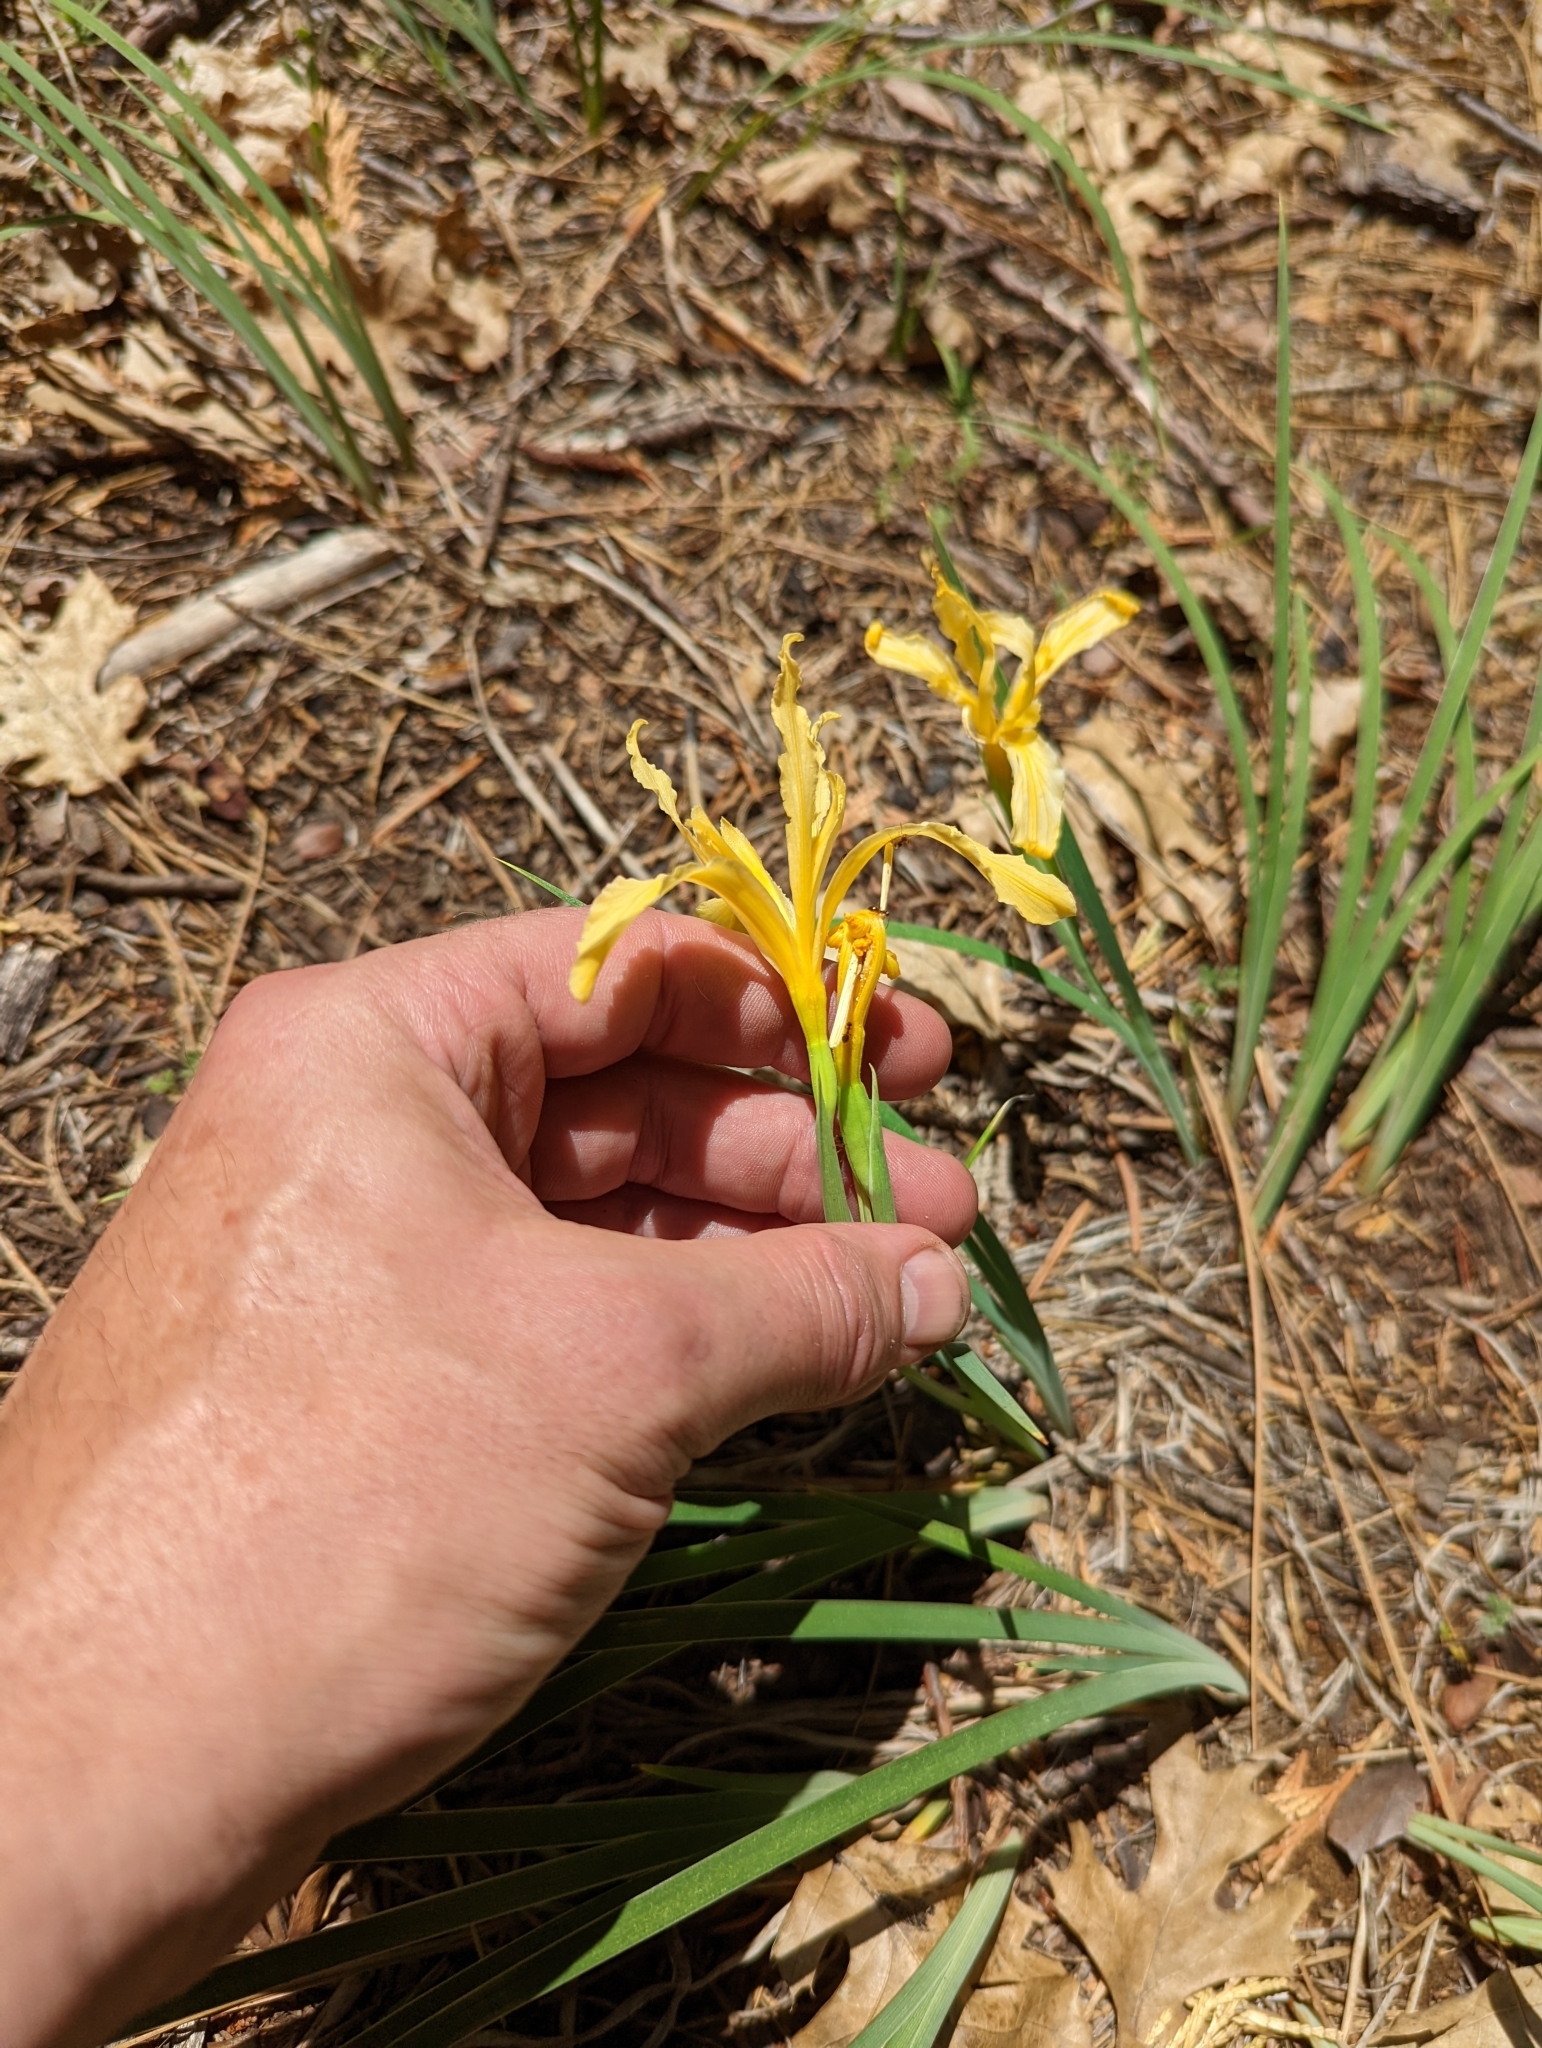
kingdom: Plantae
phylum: Tracheophyta
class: Liliopsida
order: Asparagales
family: Iridaceae
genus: Iris
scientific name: Iris hartwegii
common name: Sierra iris
